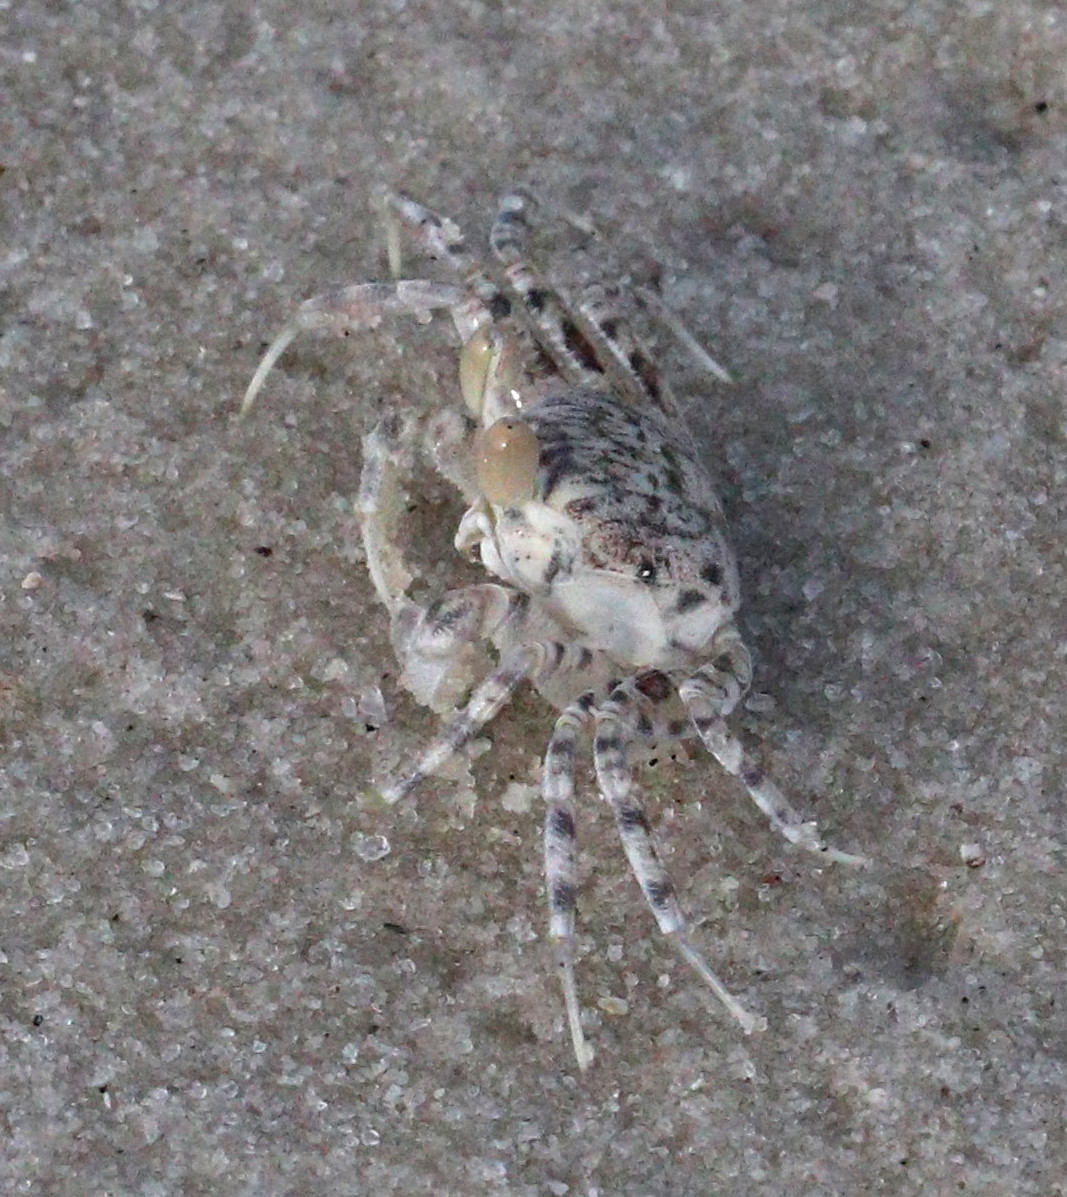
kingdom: Animalia
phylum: Arthropoda
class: Malacostraca
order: Decapoda
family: Ocypodidae
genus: Ocypode
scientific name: Ocypode
